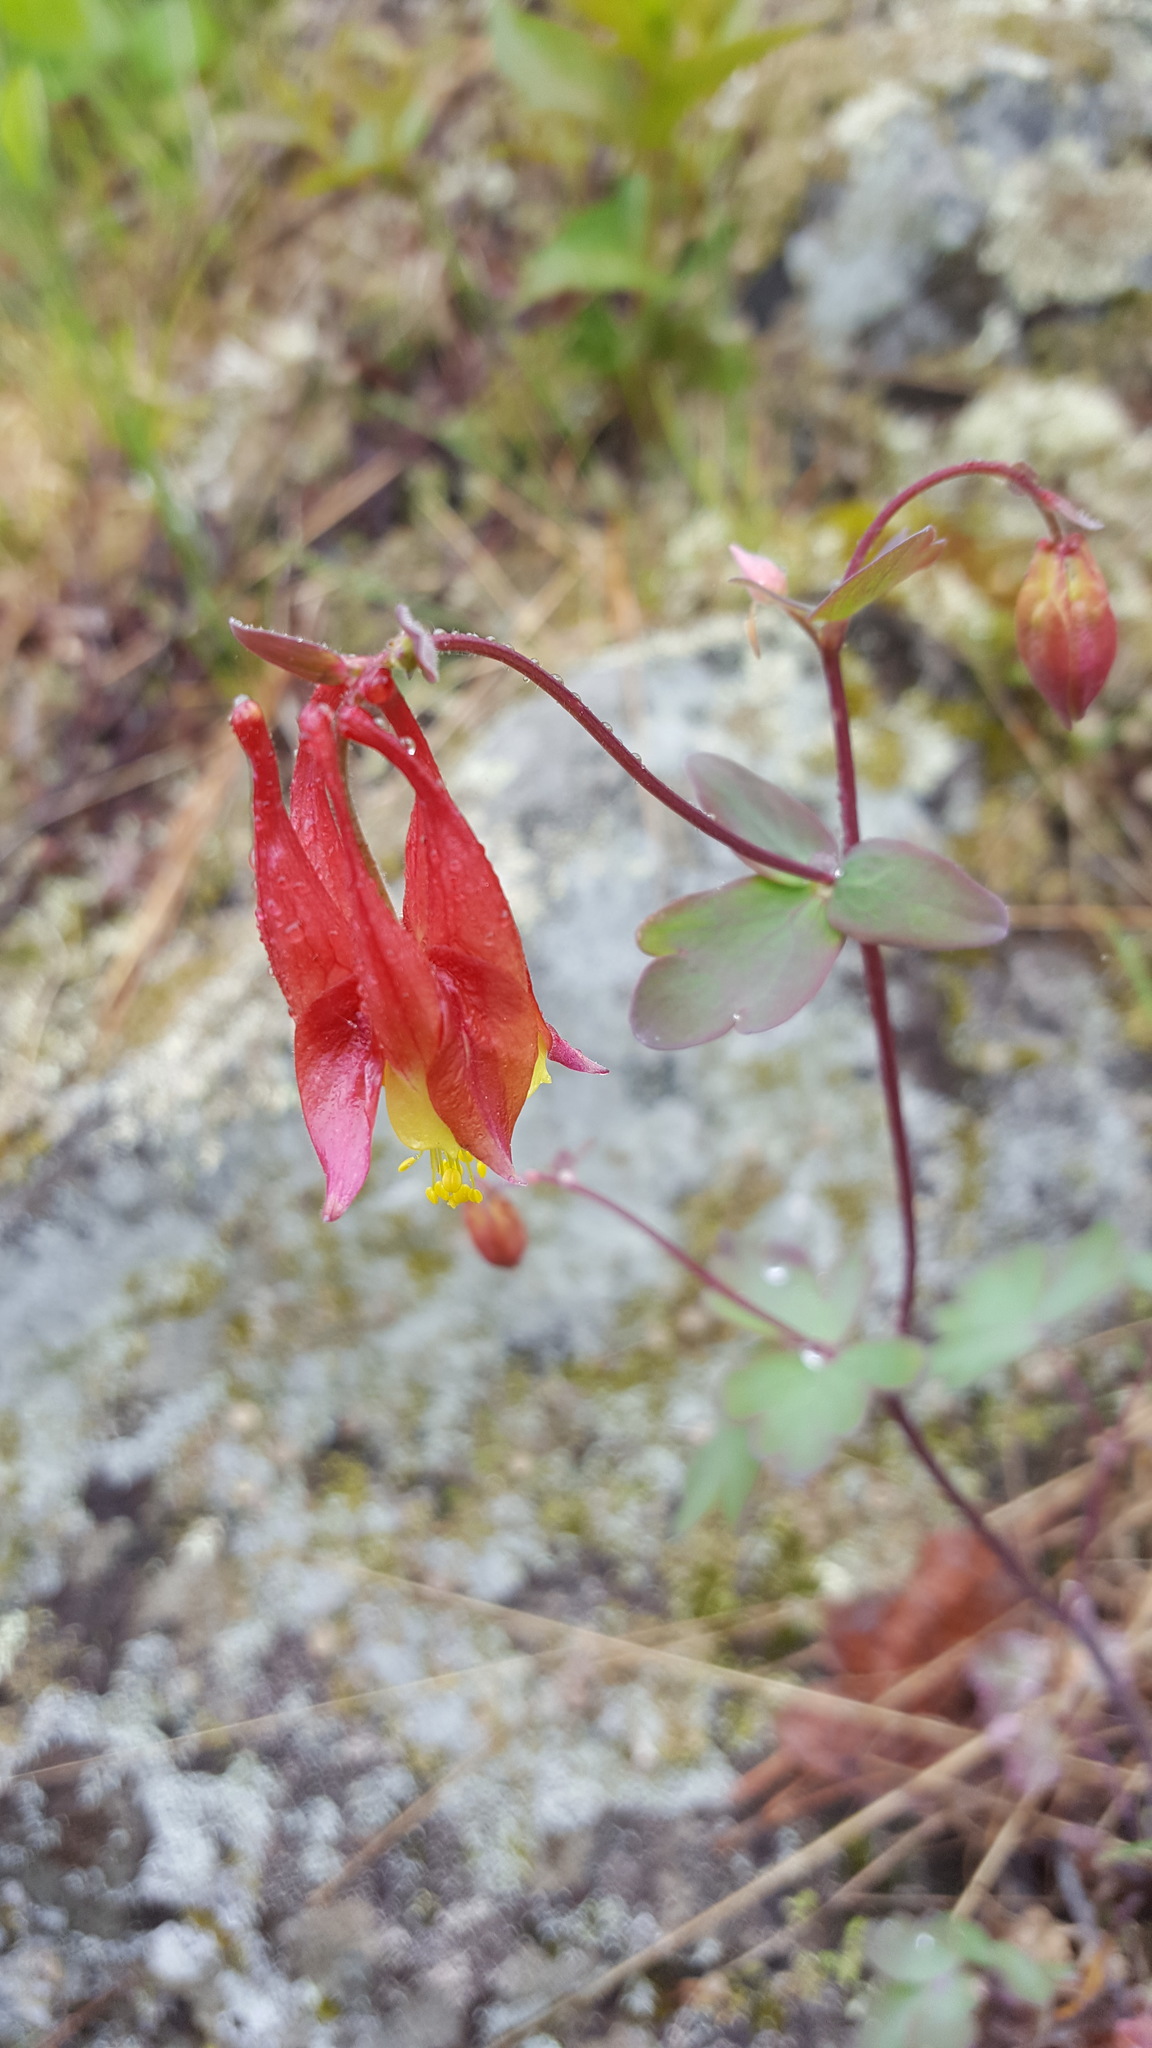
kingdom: Plantae
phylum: Tracheophyta
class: Magnoliopsida
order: Ranunculales
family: Ranunculaceae
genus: Aquilegia
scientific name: Aquilegia canadensis
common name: American columbine
